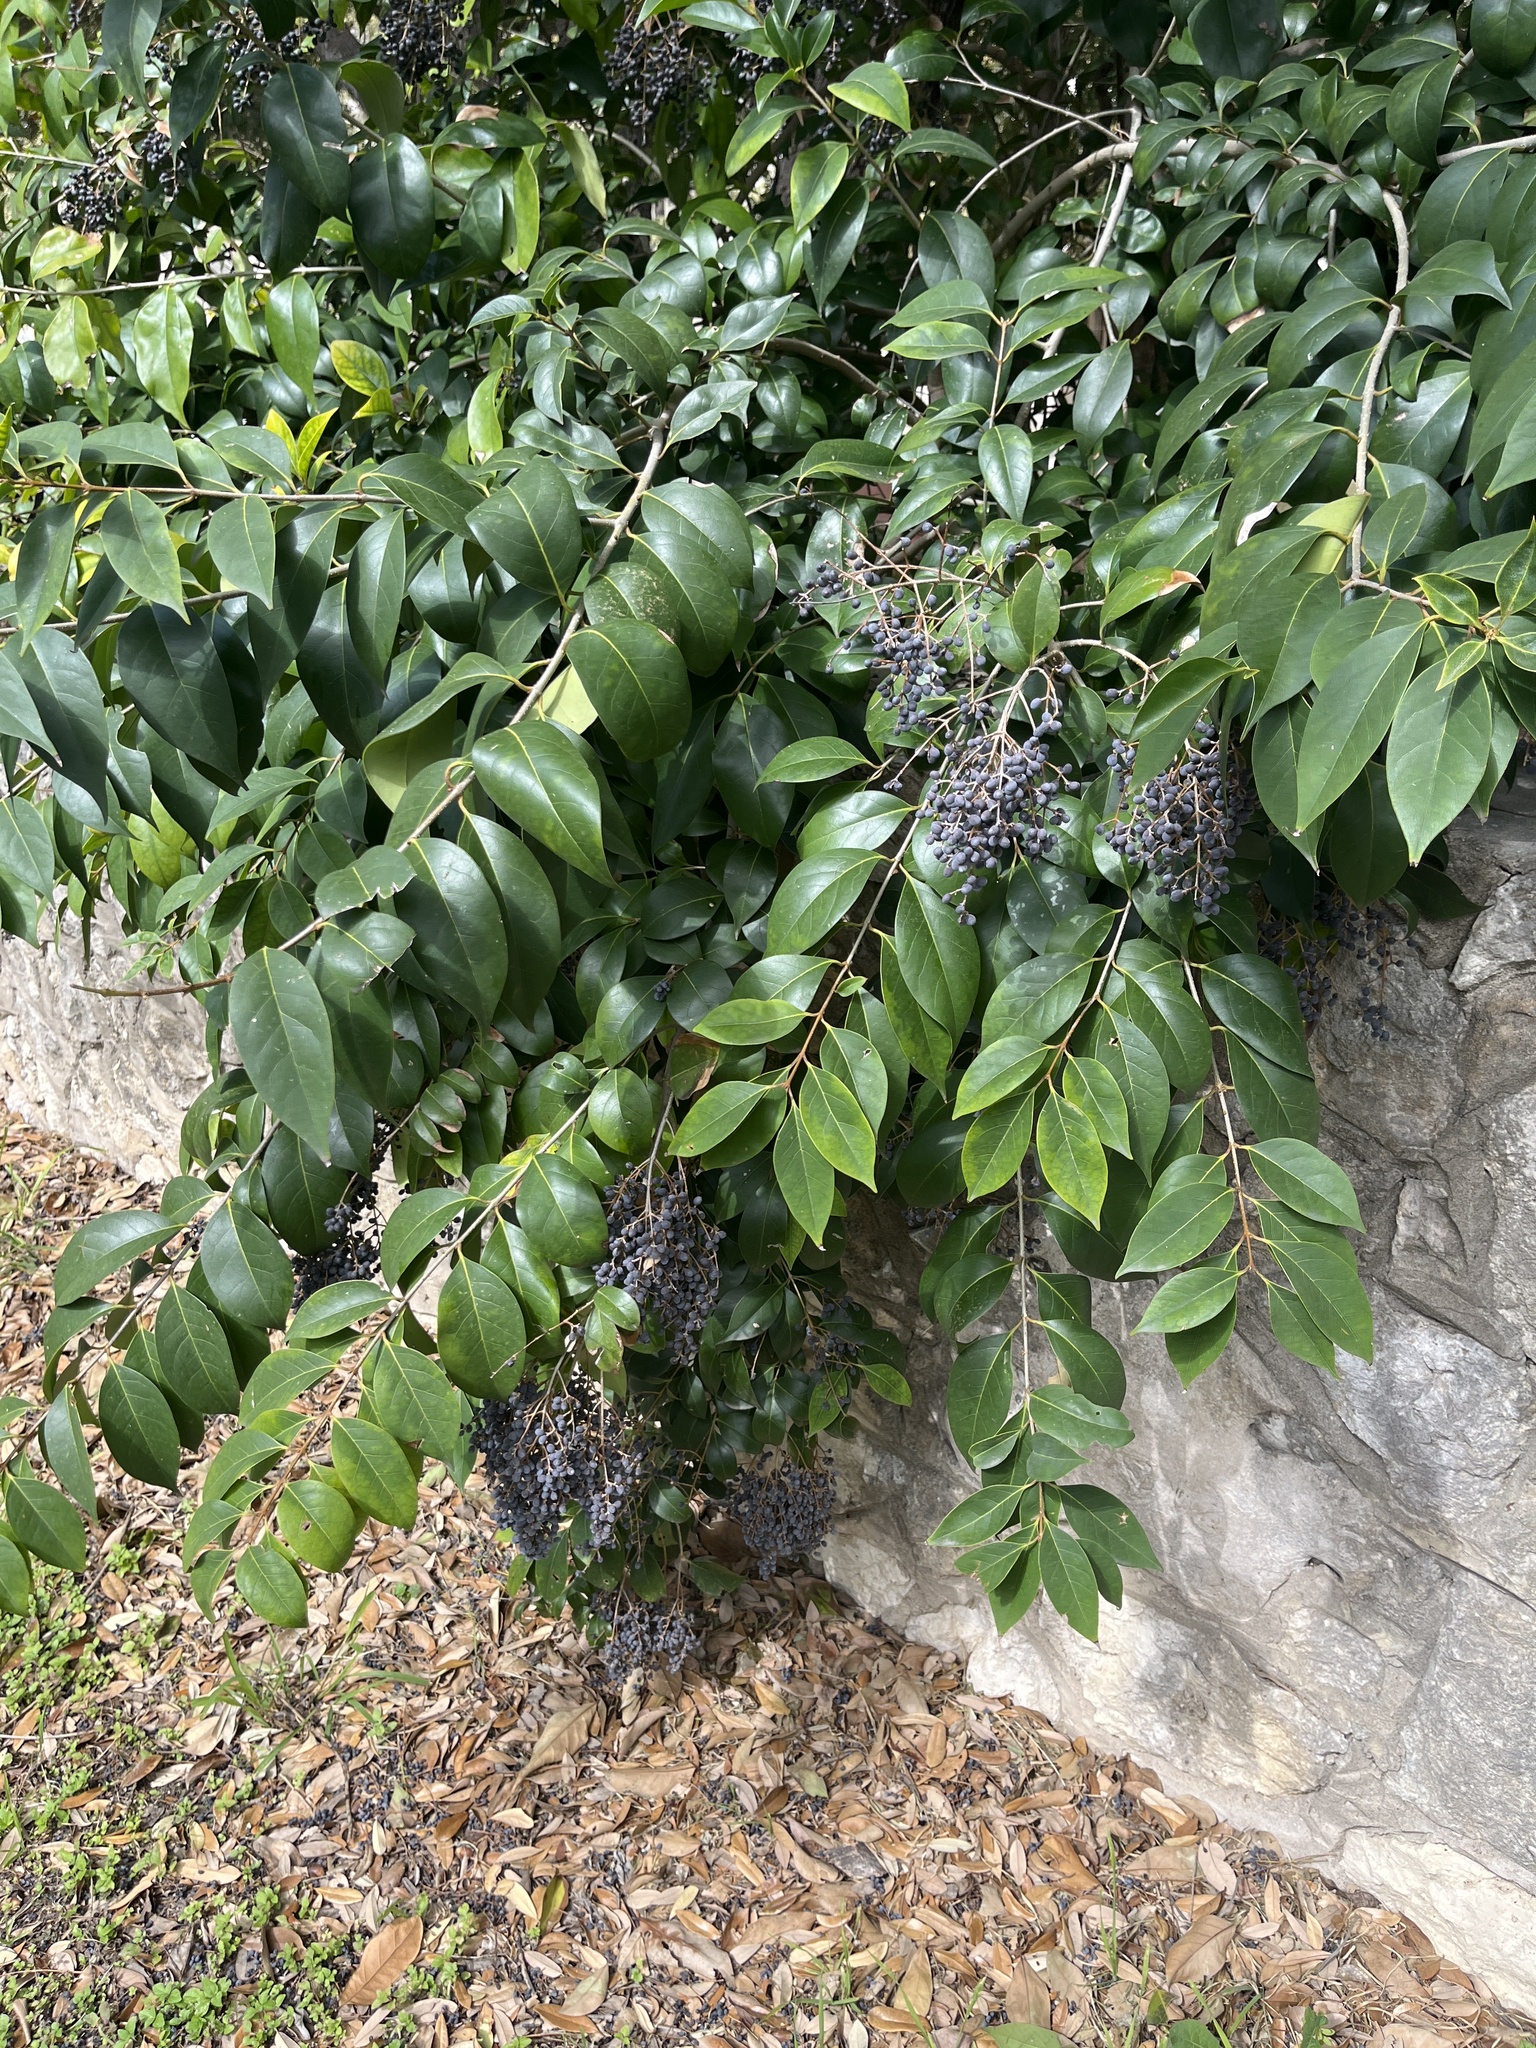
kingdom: Plantae
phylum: Tracheophyta
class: Magnoliopsida
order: Lamiales
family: Oleaceae
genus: Ligustrum
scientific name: Ligustrum lucidum
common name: Glossy privet
